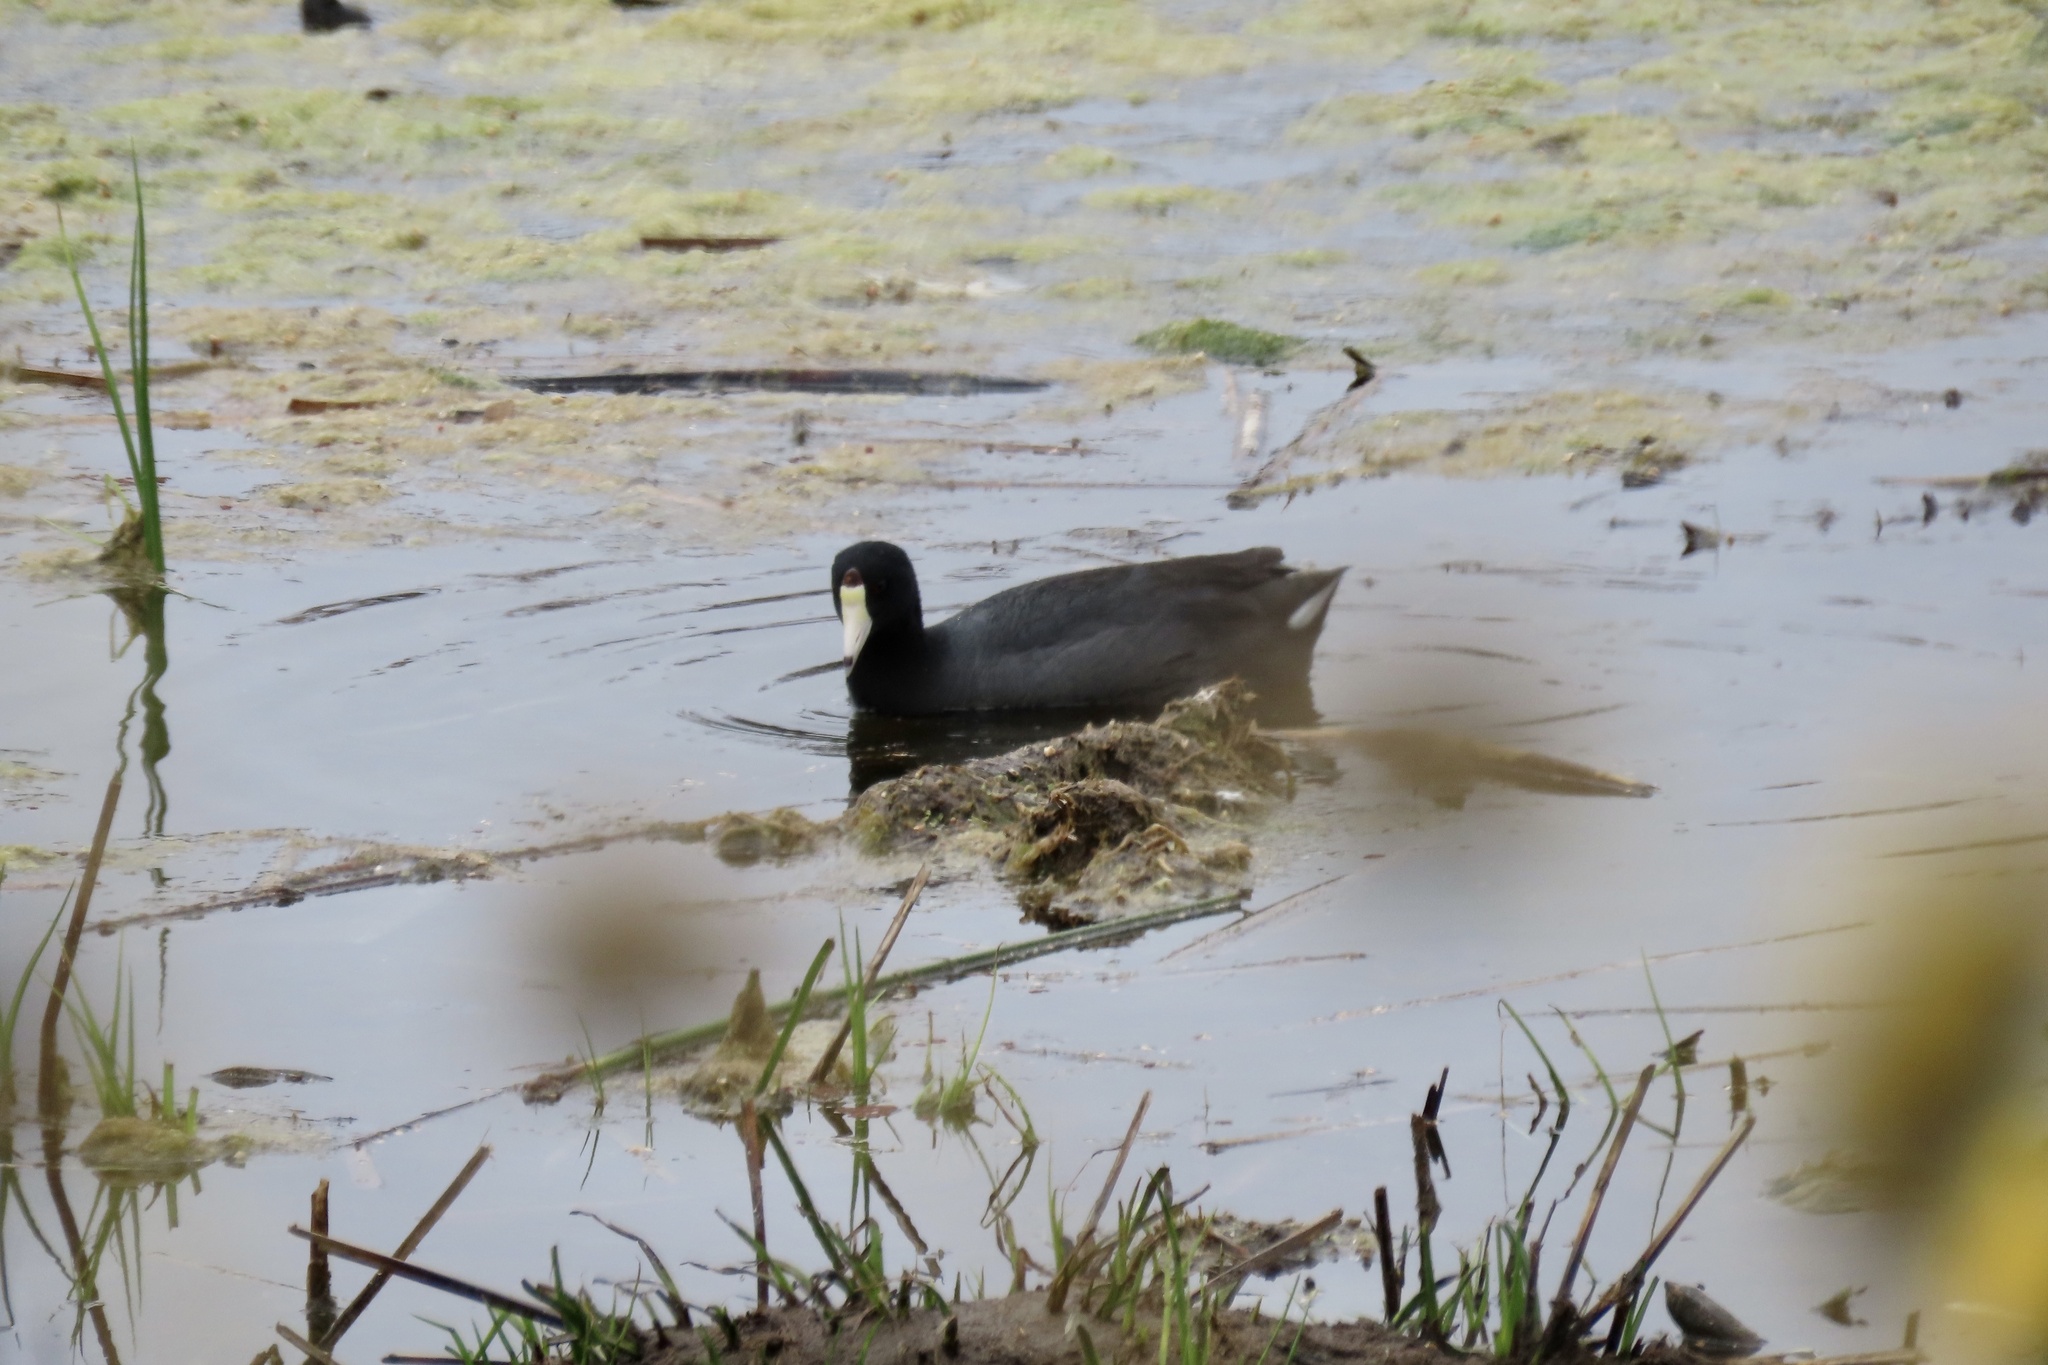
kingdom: Animalia
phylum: Chordata
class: Aves
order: Gruiformes
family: Rallidae
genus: Fulica
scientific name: Fulica americana
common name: American coot
